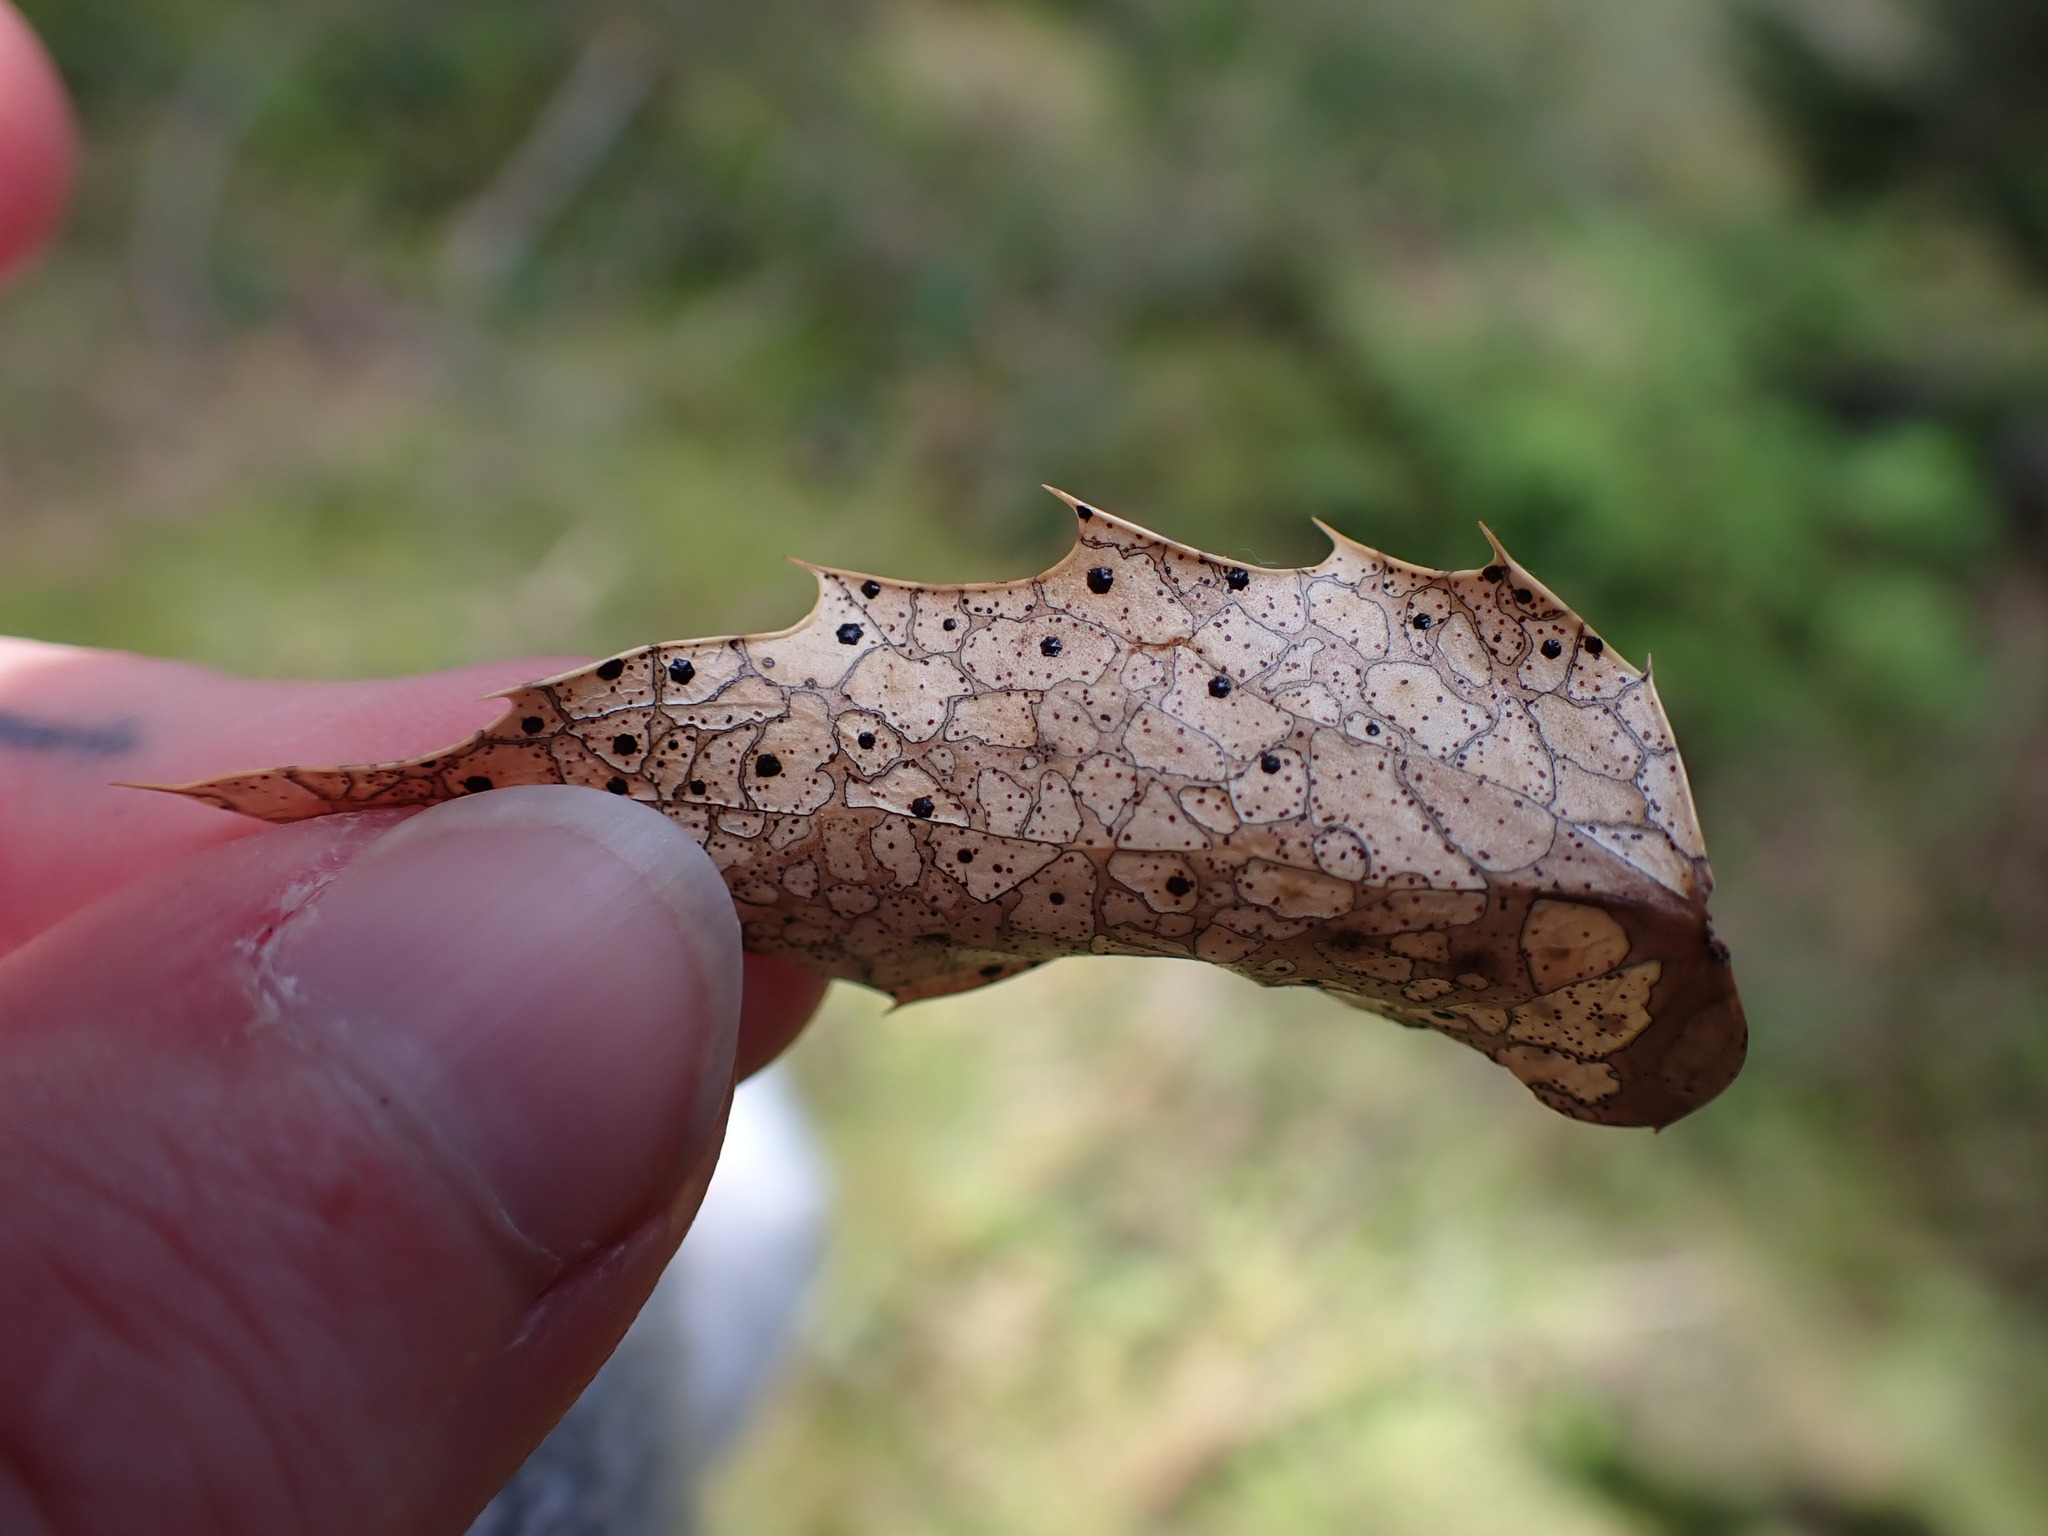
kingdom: Fungi
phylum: Ascomycota
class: Leotiomycetes
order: Rhytismatales
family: Rhytismataceae
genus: Coccomyces
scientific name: Coccomyces dentatus
